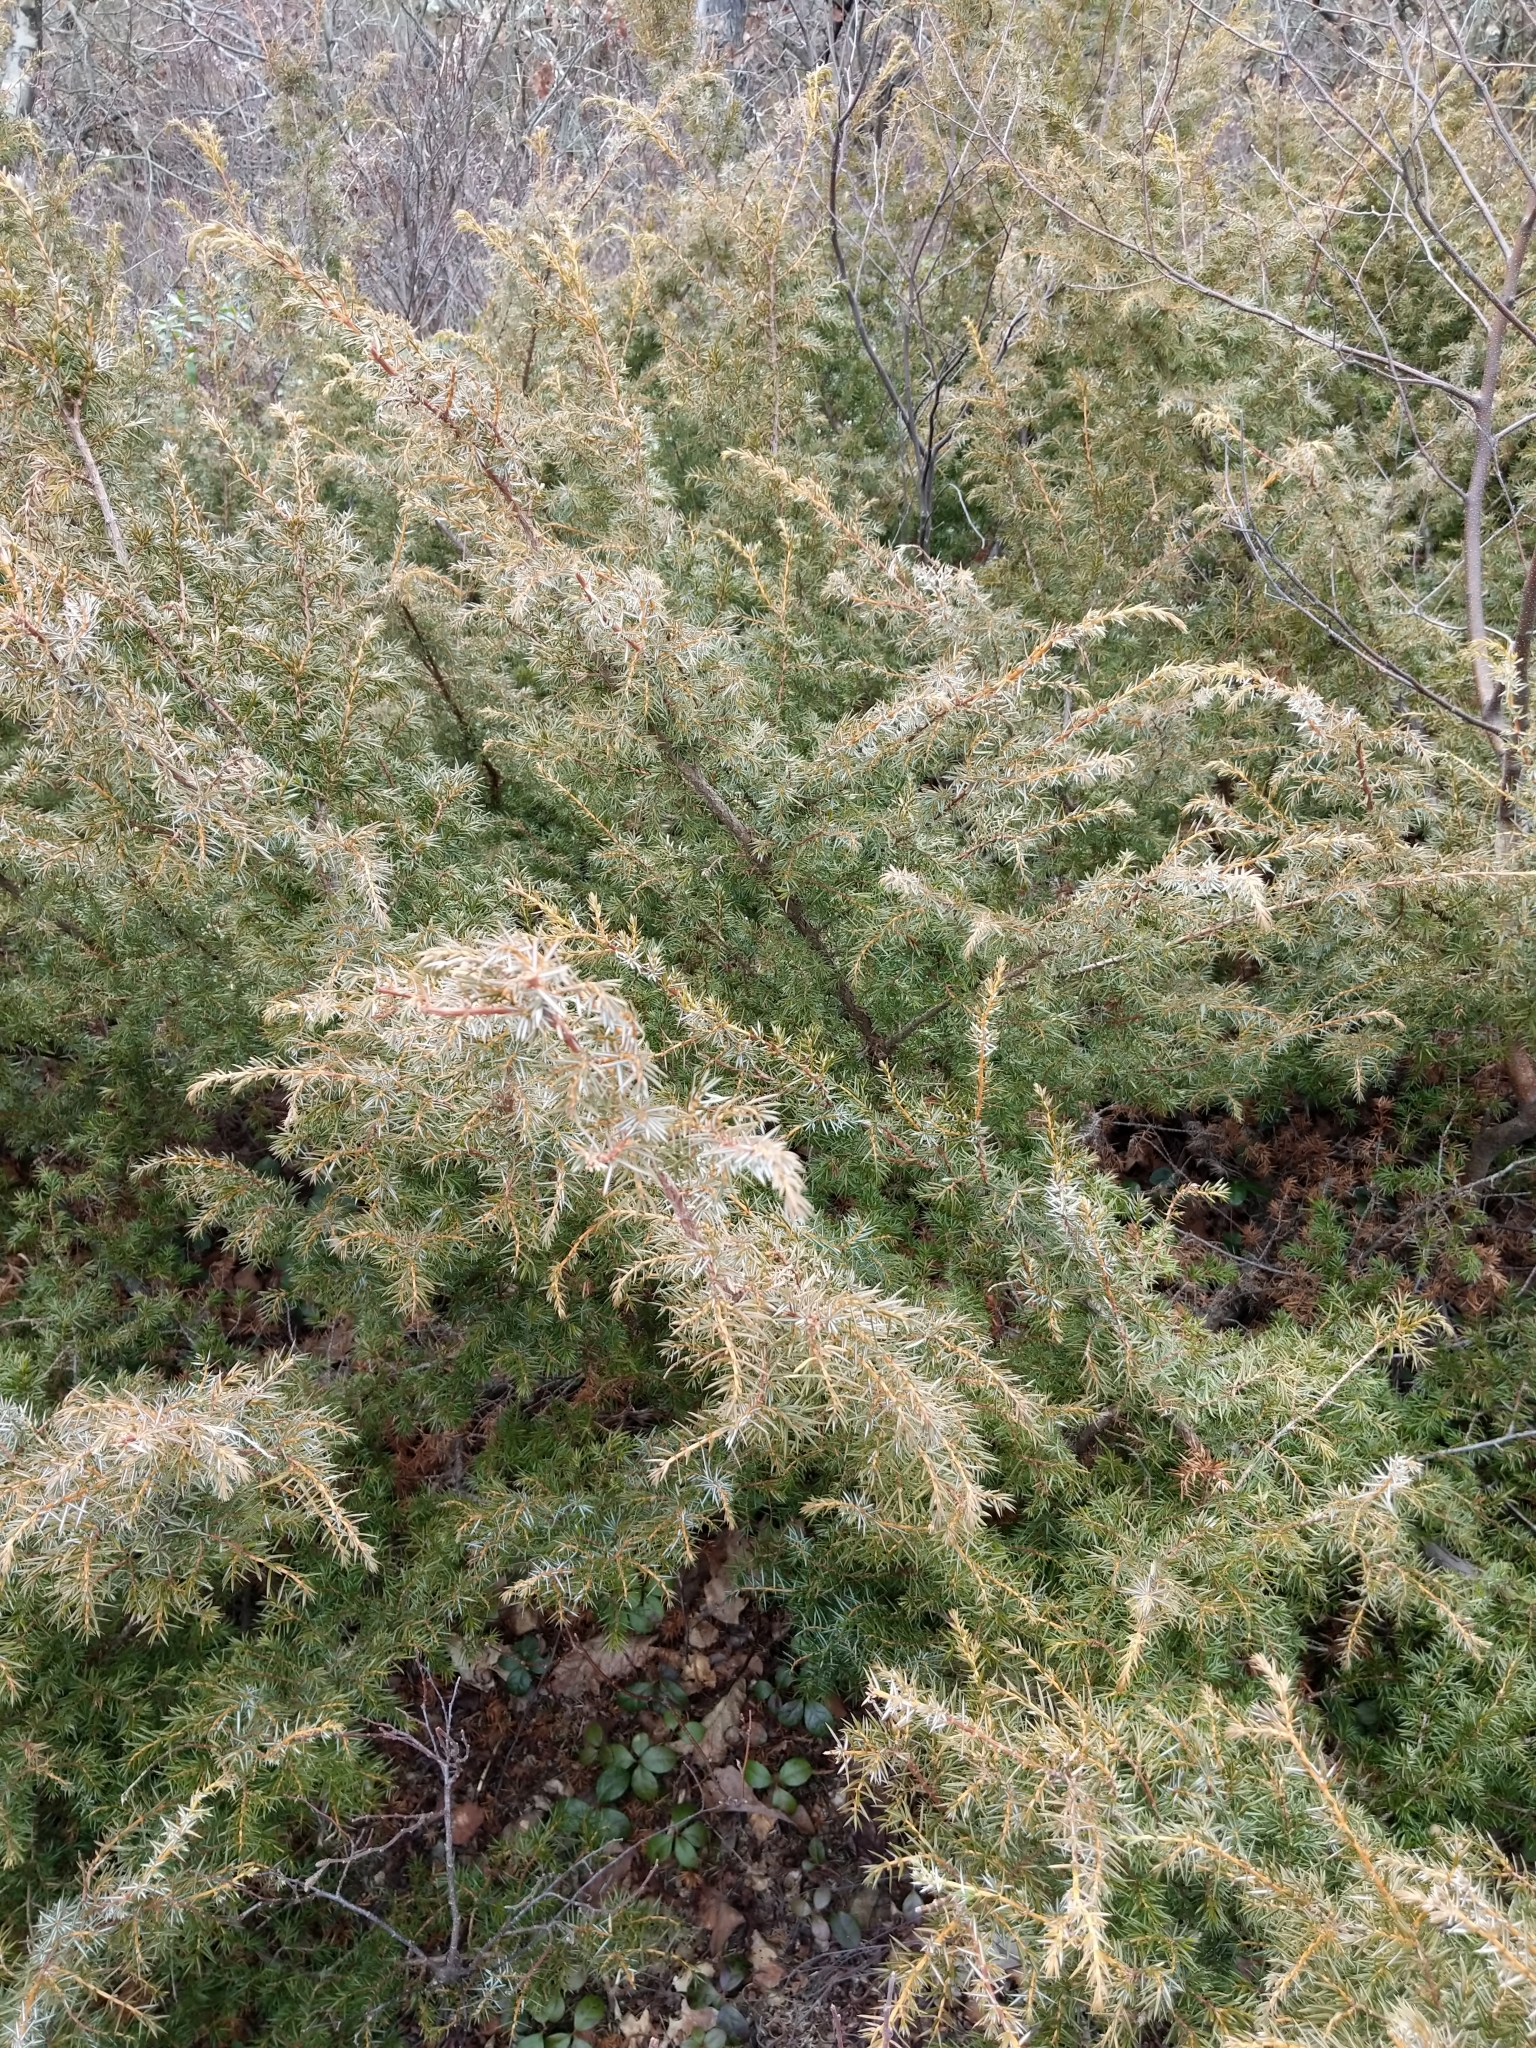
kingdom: Plantae
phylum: Tracheophyta
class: Pinopsida
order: Pinales
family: Cupressaceae
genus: Juniperus
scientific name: Juniperus communis
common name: Common juniper
